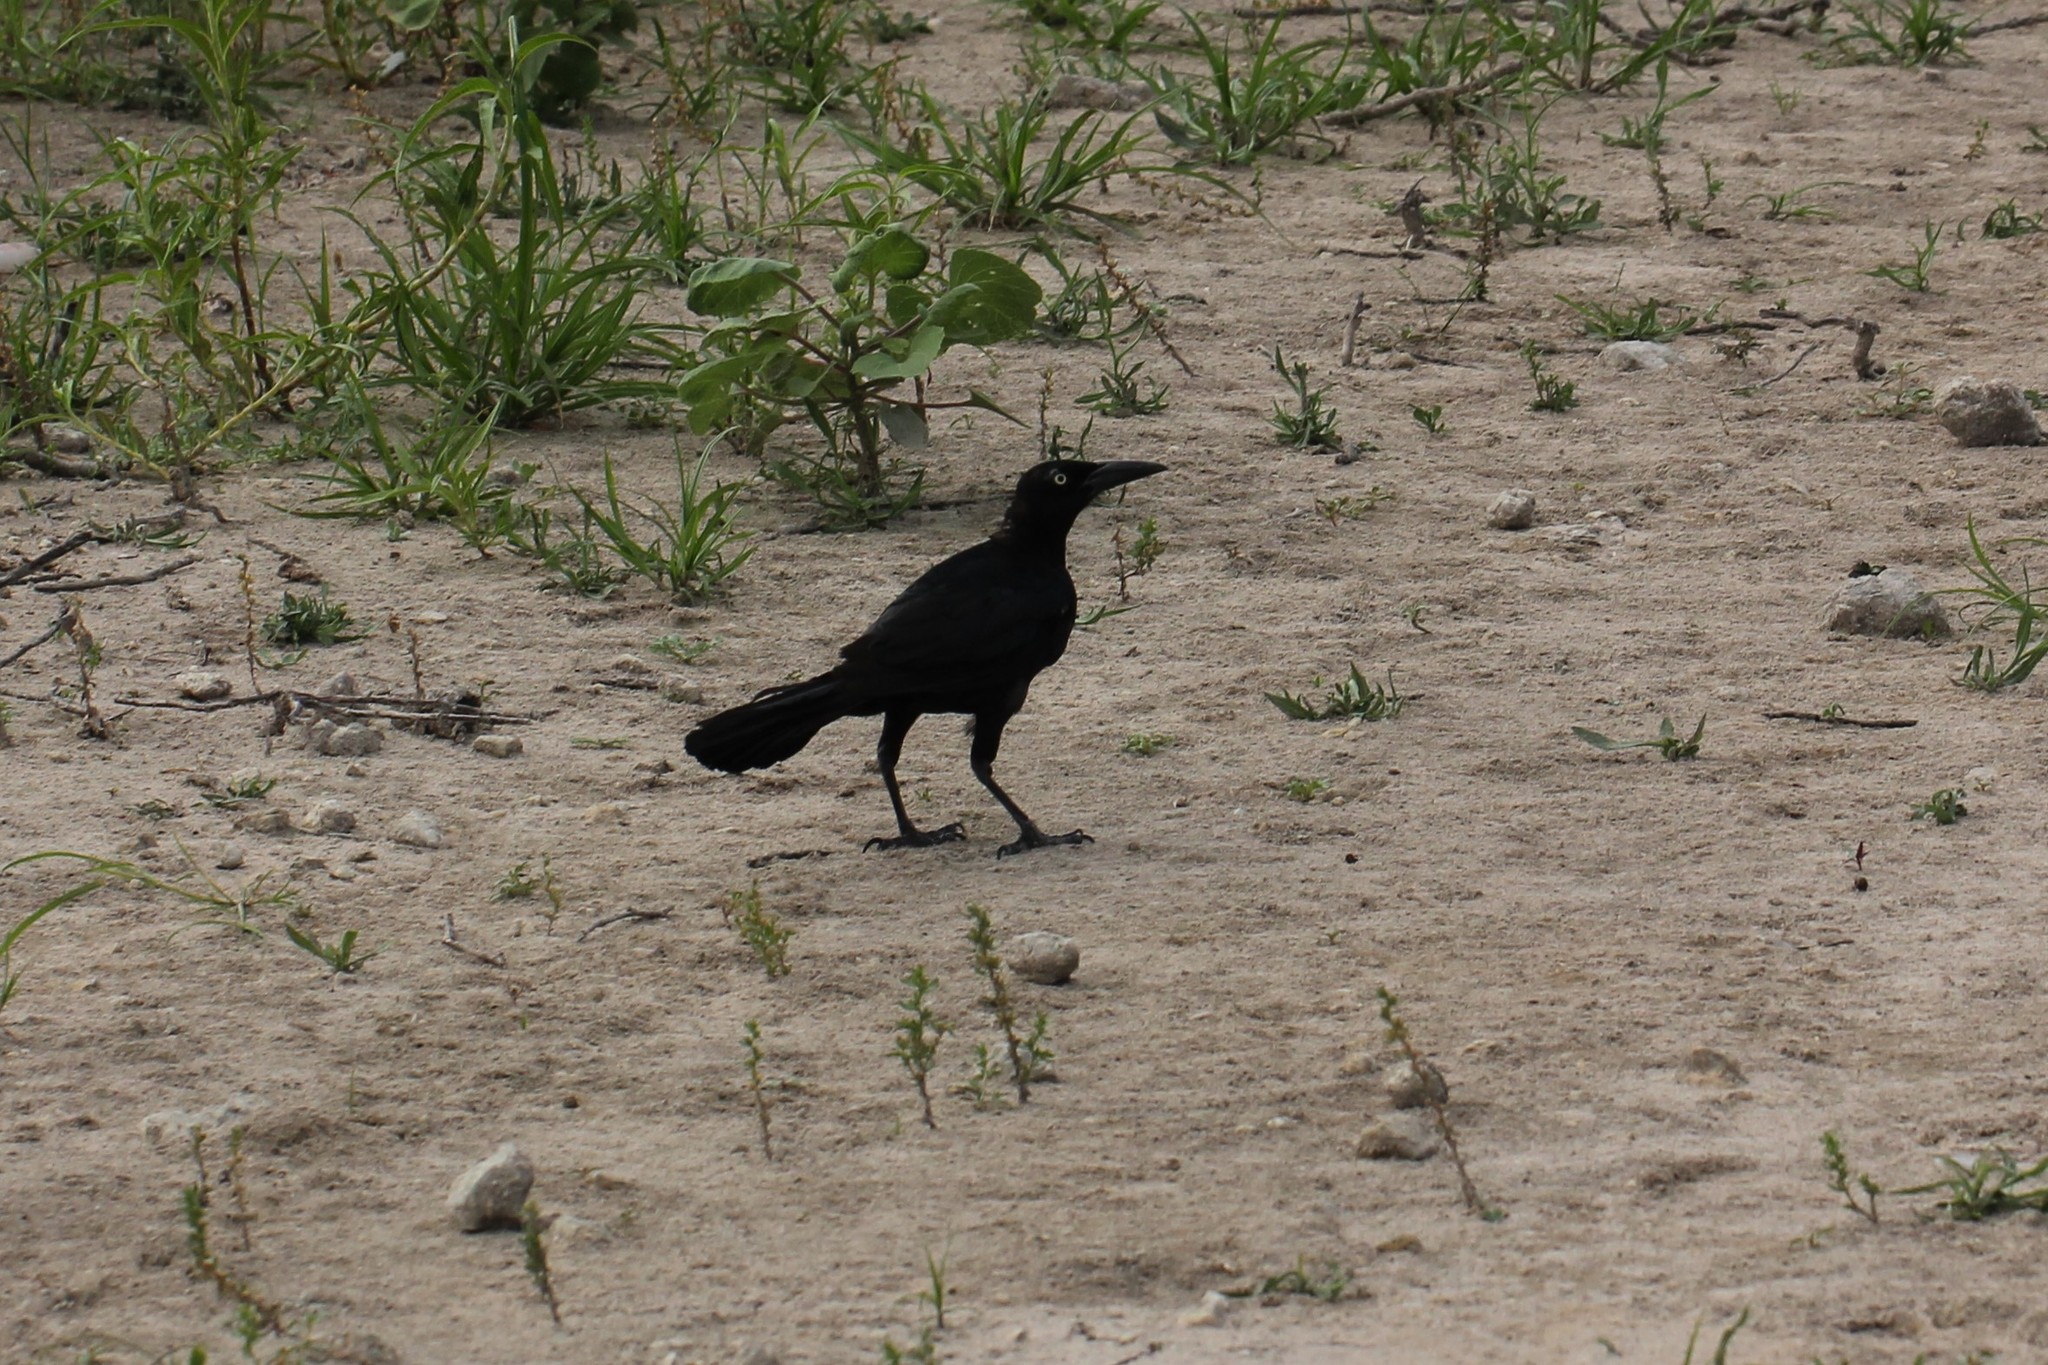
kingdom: Animalia
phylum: Chordata
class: Aves
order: Passeriformes
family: Icteridae
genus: Quiscalus
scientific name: Quiscalus mexicanus
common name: Great-tailed grackle
